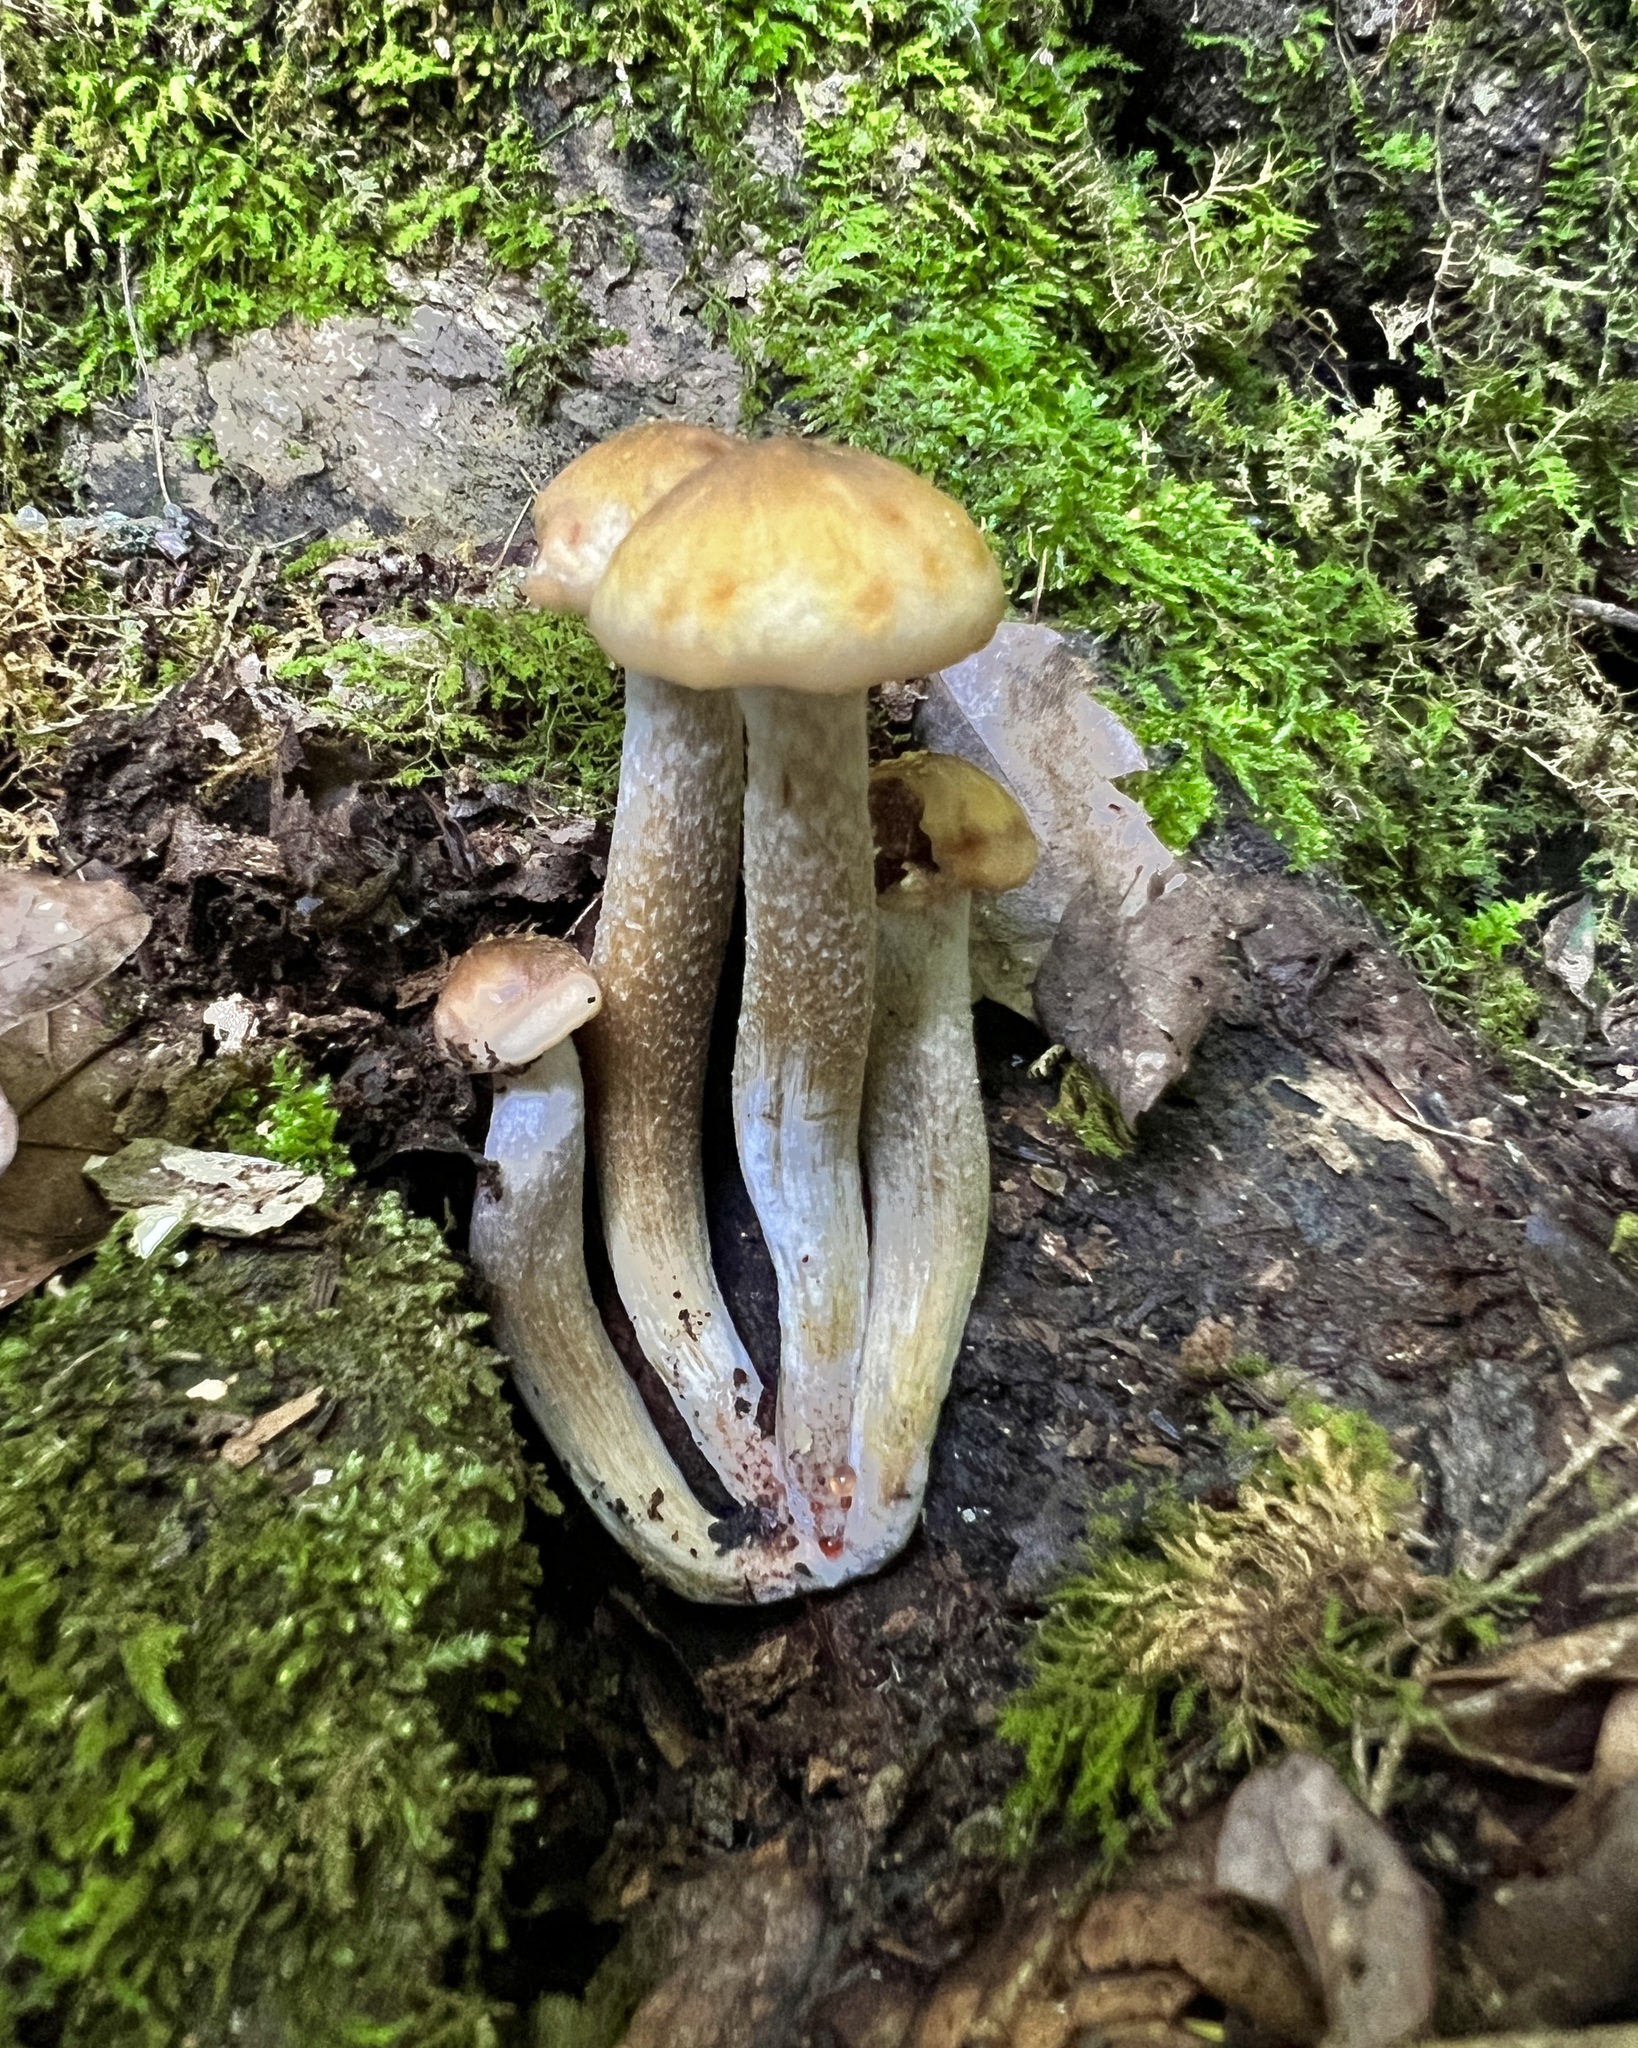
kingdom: Fungi
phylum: Basidiomycota
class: Agaricomycetes
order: Agaricales
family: Physalacriaceae
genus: Armillaria
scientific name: Armillaria mellea
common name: Honey fungus
